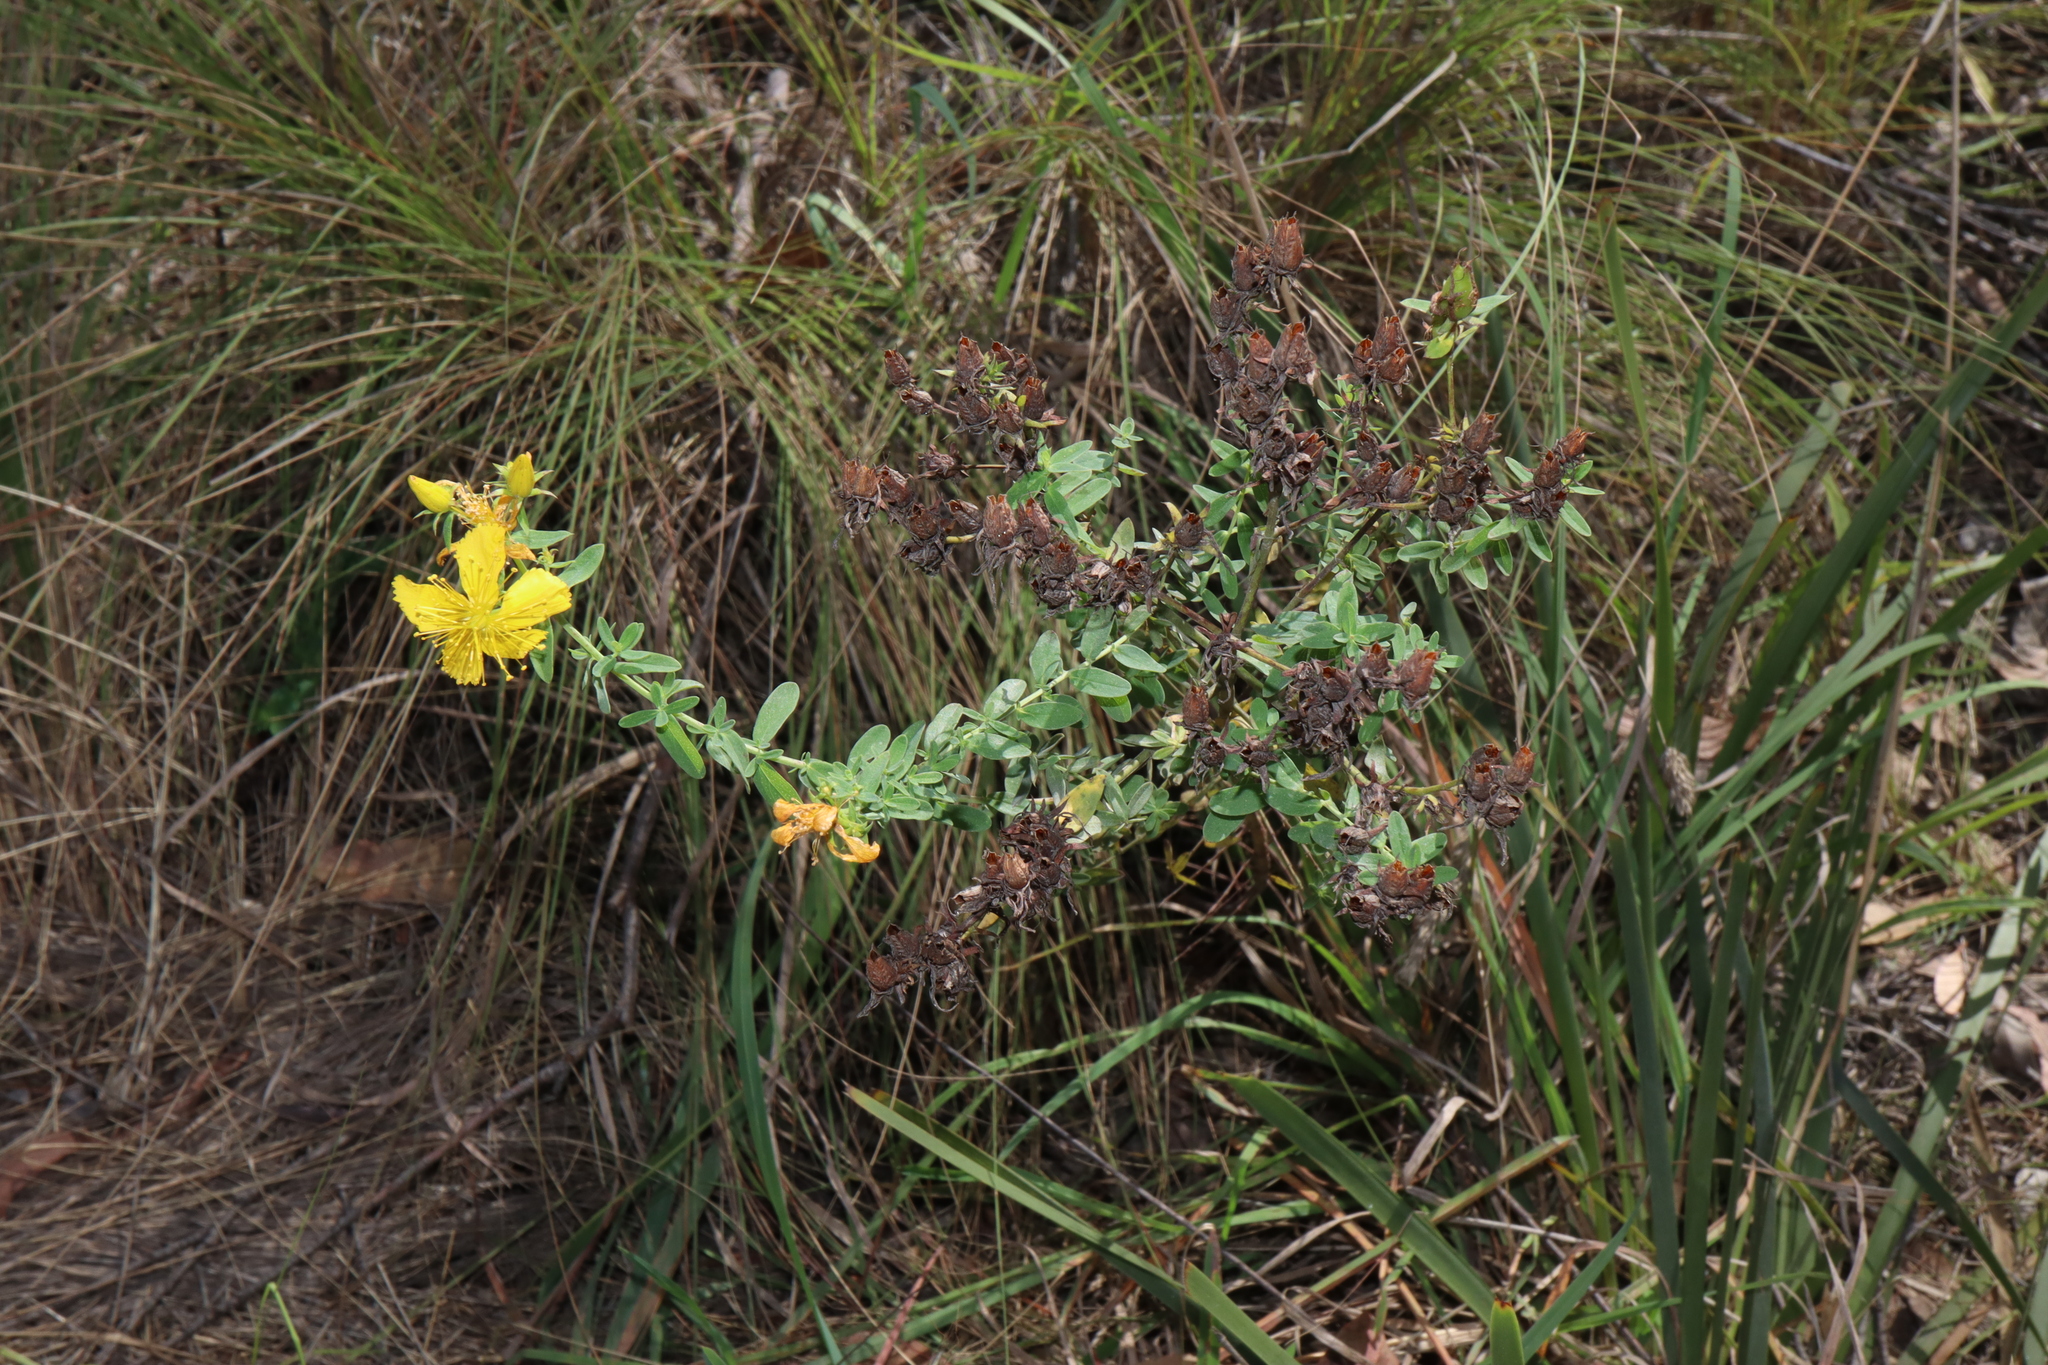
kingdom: Plantae
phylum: Tracheophyta
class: Magnoliopsida
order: Malpighiales
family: Hypericaceae
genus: Hypericum
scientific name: Hypericum perforatum
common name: Common st. johnswort
